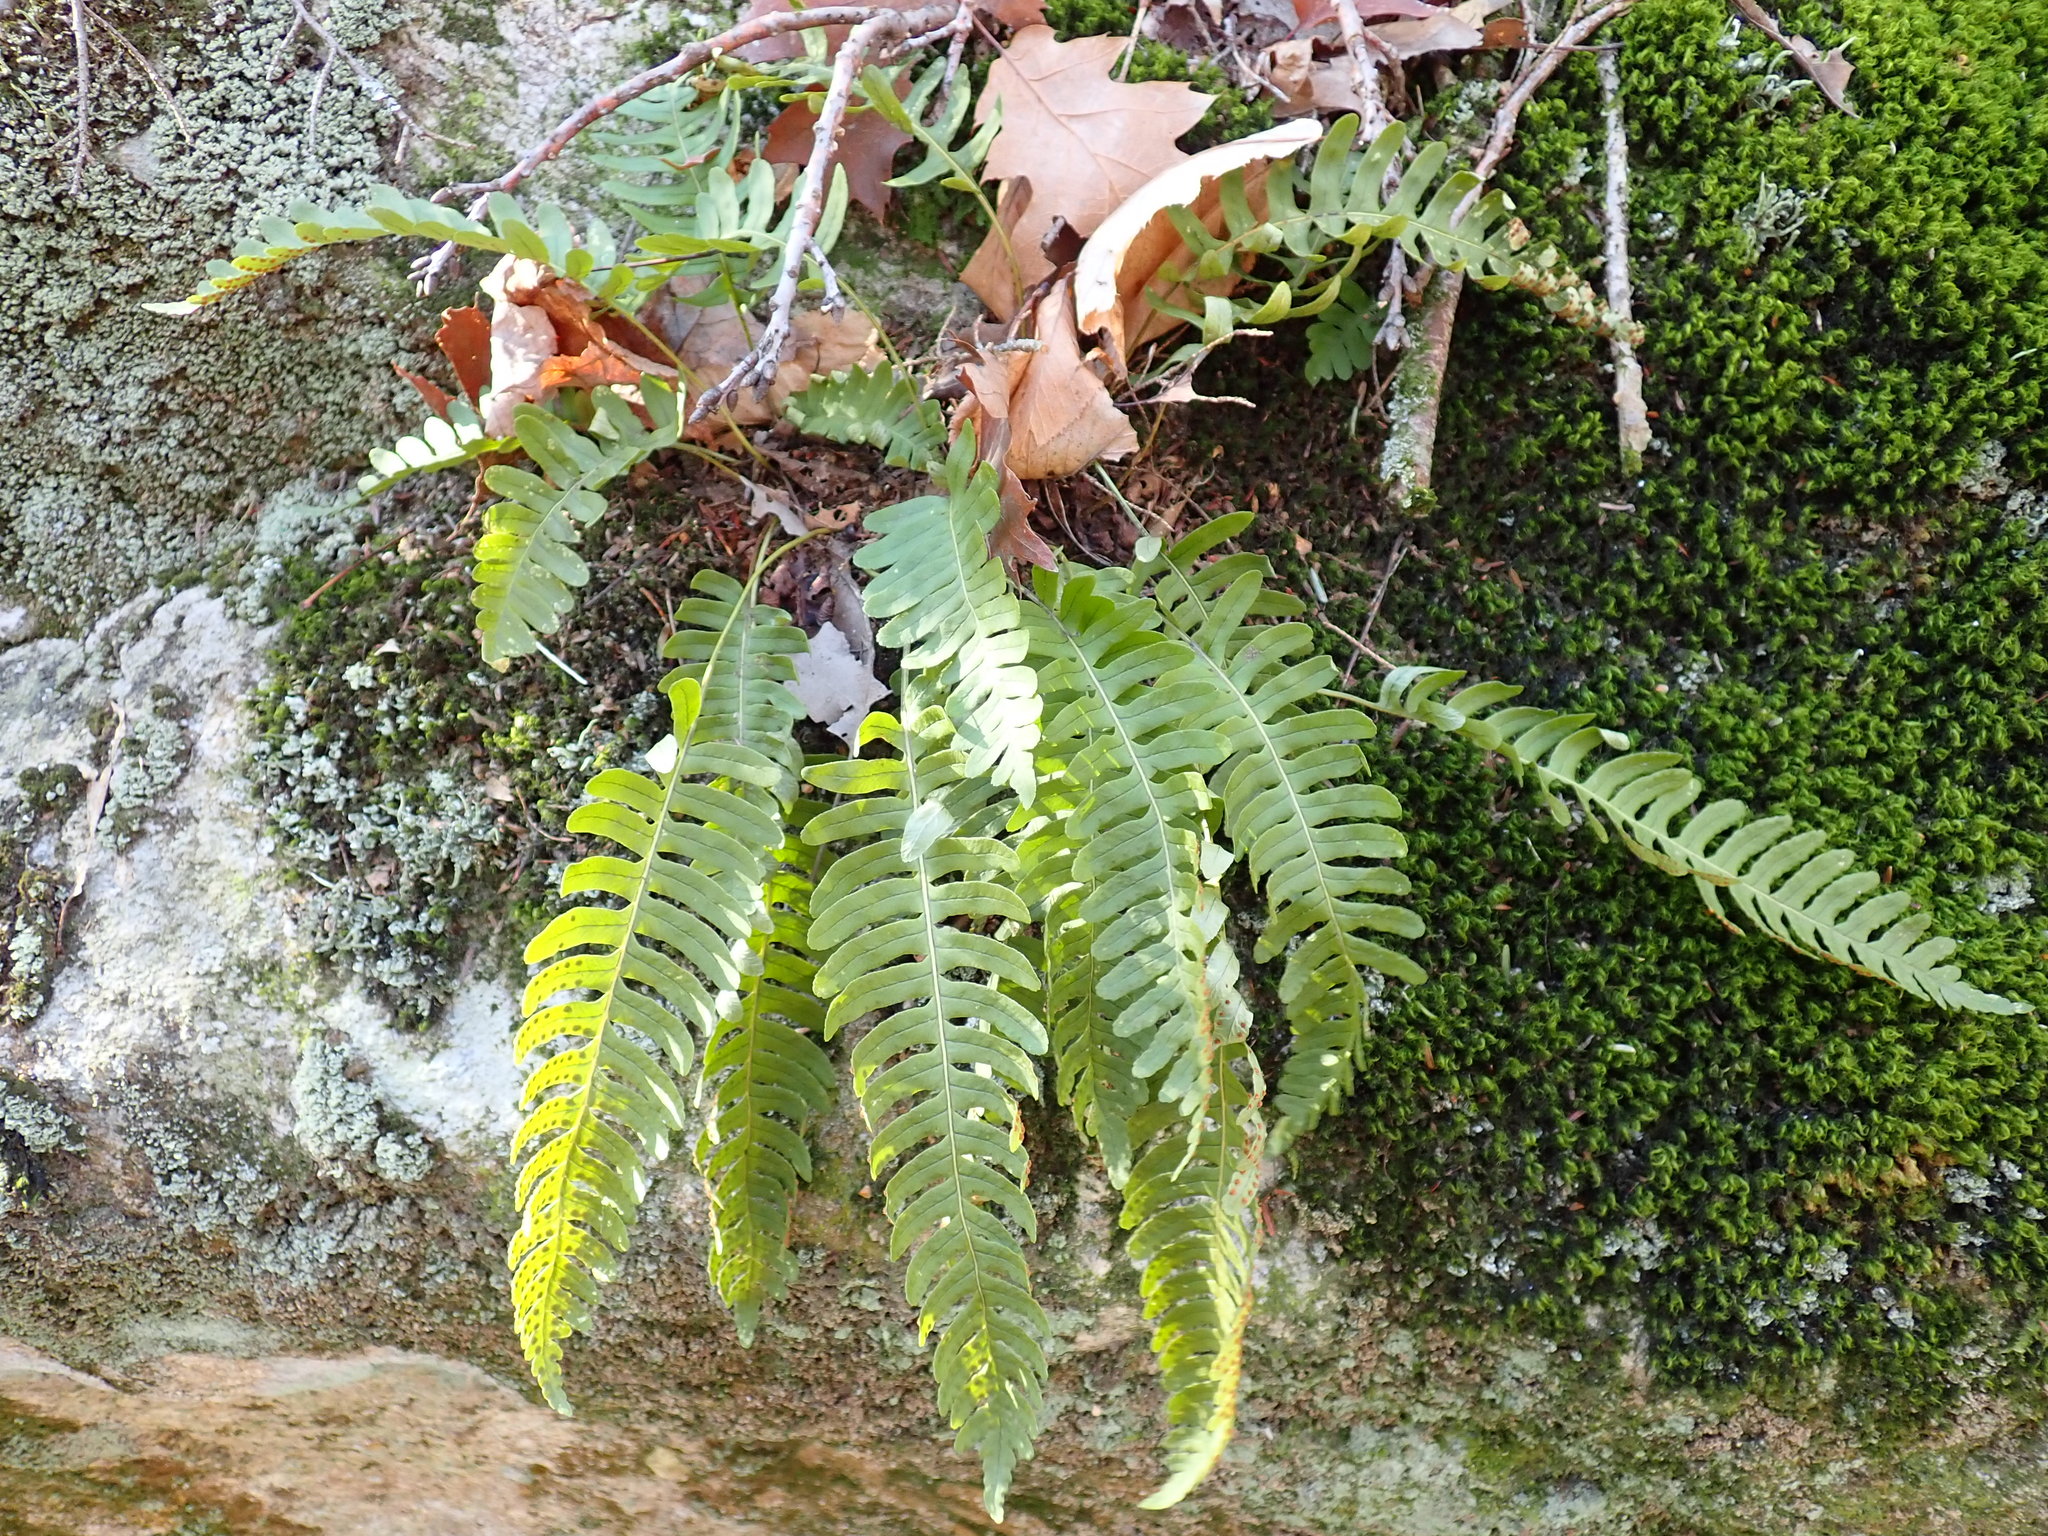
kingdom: Plantae
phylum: Tracheophyta
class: Polypodiopsida
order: Polypodiales
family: Polypodiaceae
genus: Polypodium
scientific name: Polypodium virginianum
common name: American wall fern
